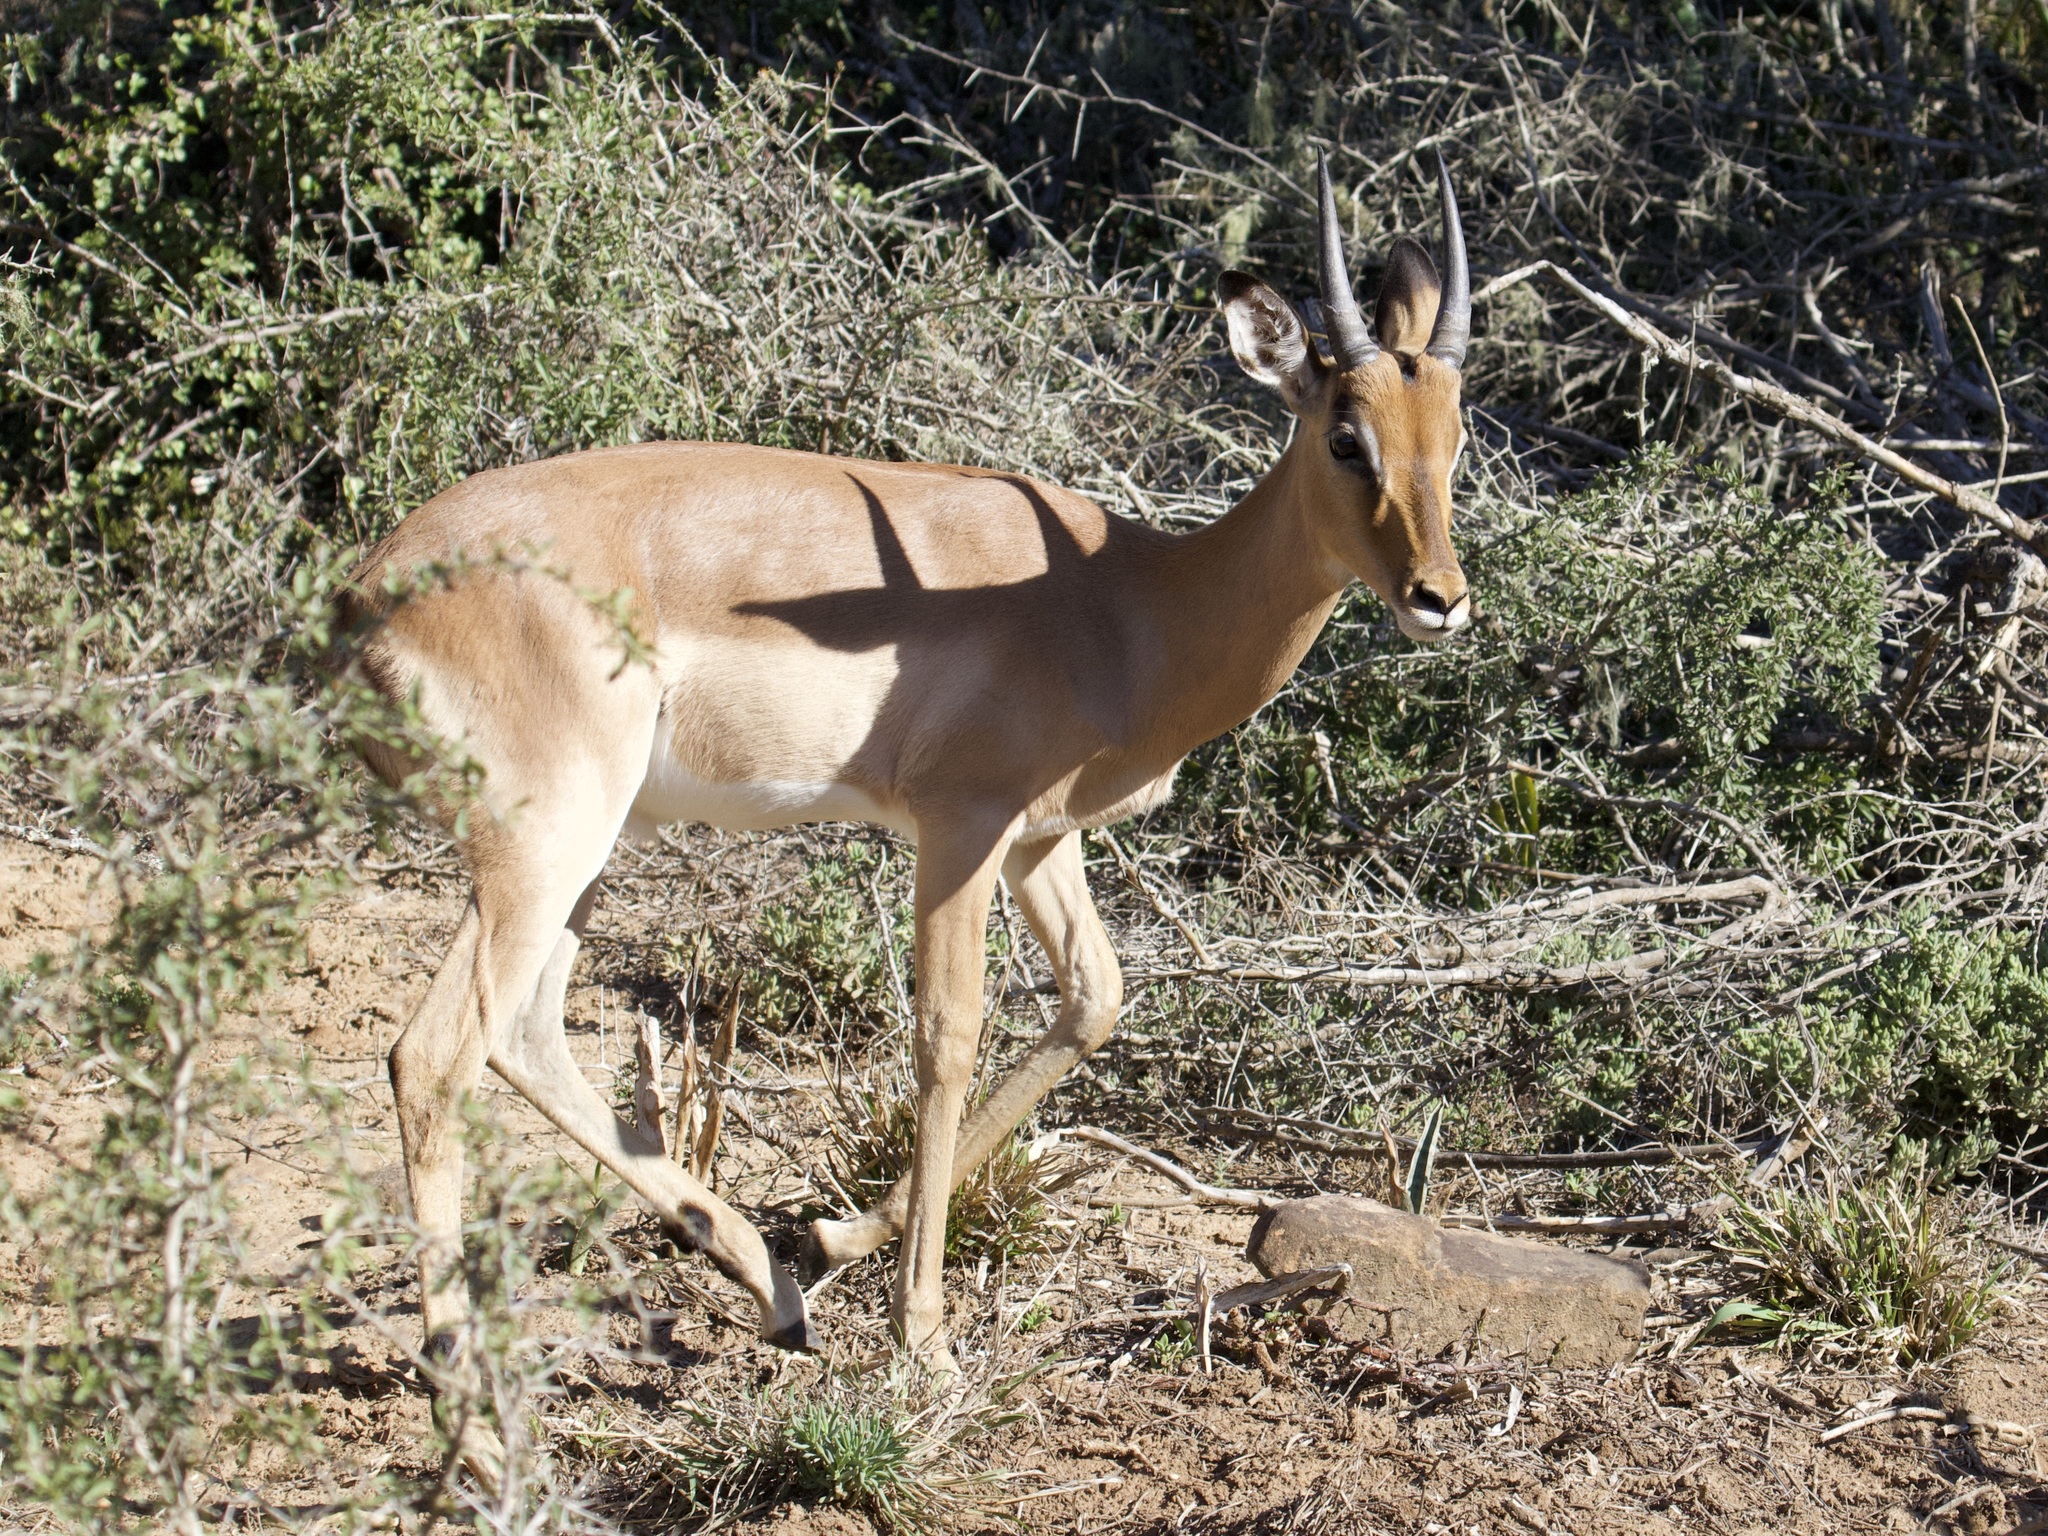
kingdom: Animalia
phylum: Chordata
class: Mammalia
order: Artiodactyla
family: Bovidae
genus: Aepyceros
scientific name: Aepyceros melampus
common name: Impala
